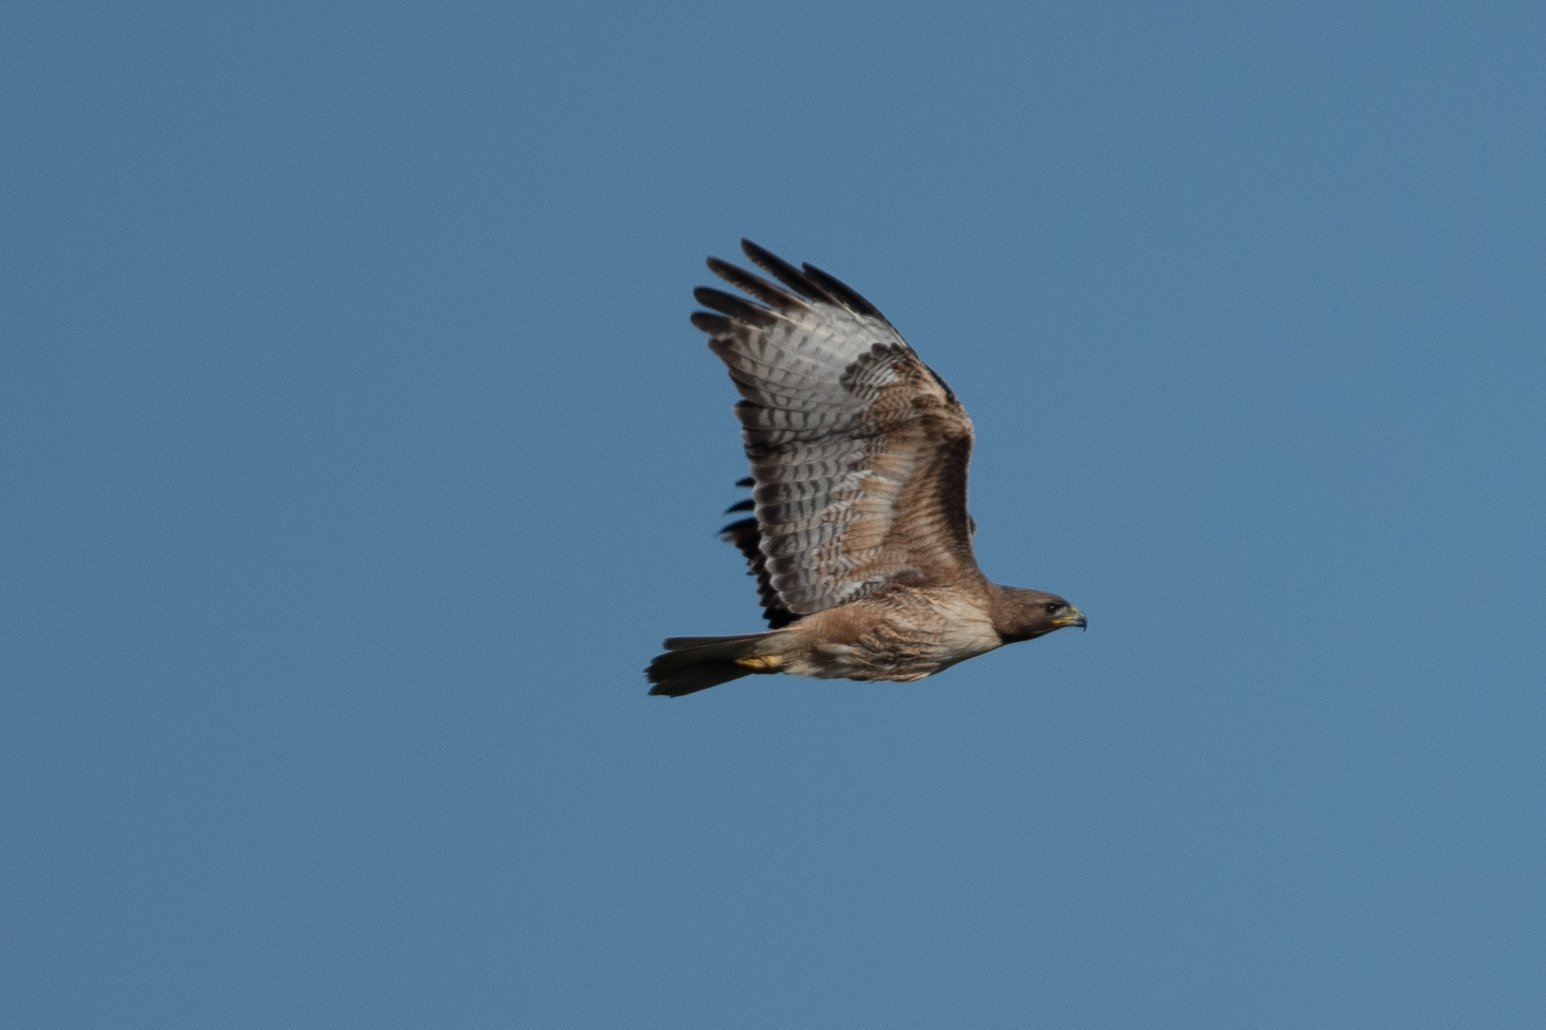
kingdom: Animalia
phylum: Chordata
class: Aves
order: Accipitriformes
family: Accipitridae
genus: Buteo
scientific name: Buteo jamaicensis
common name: Red-tailed hawk
